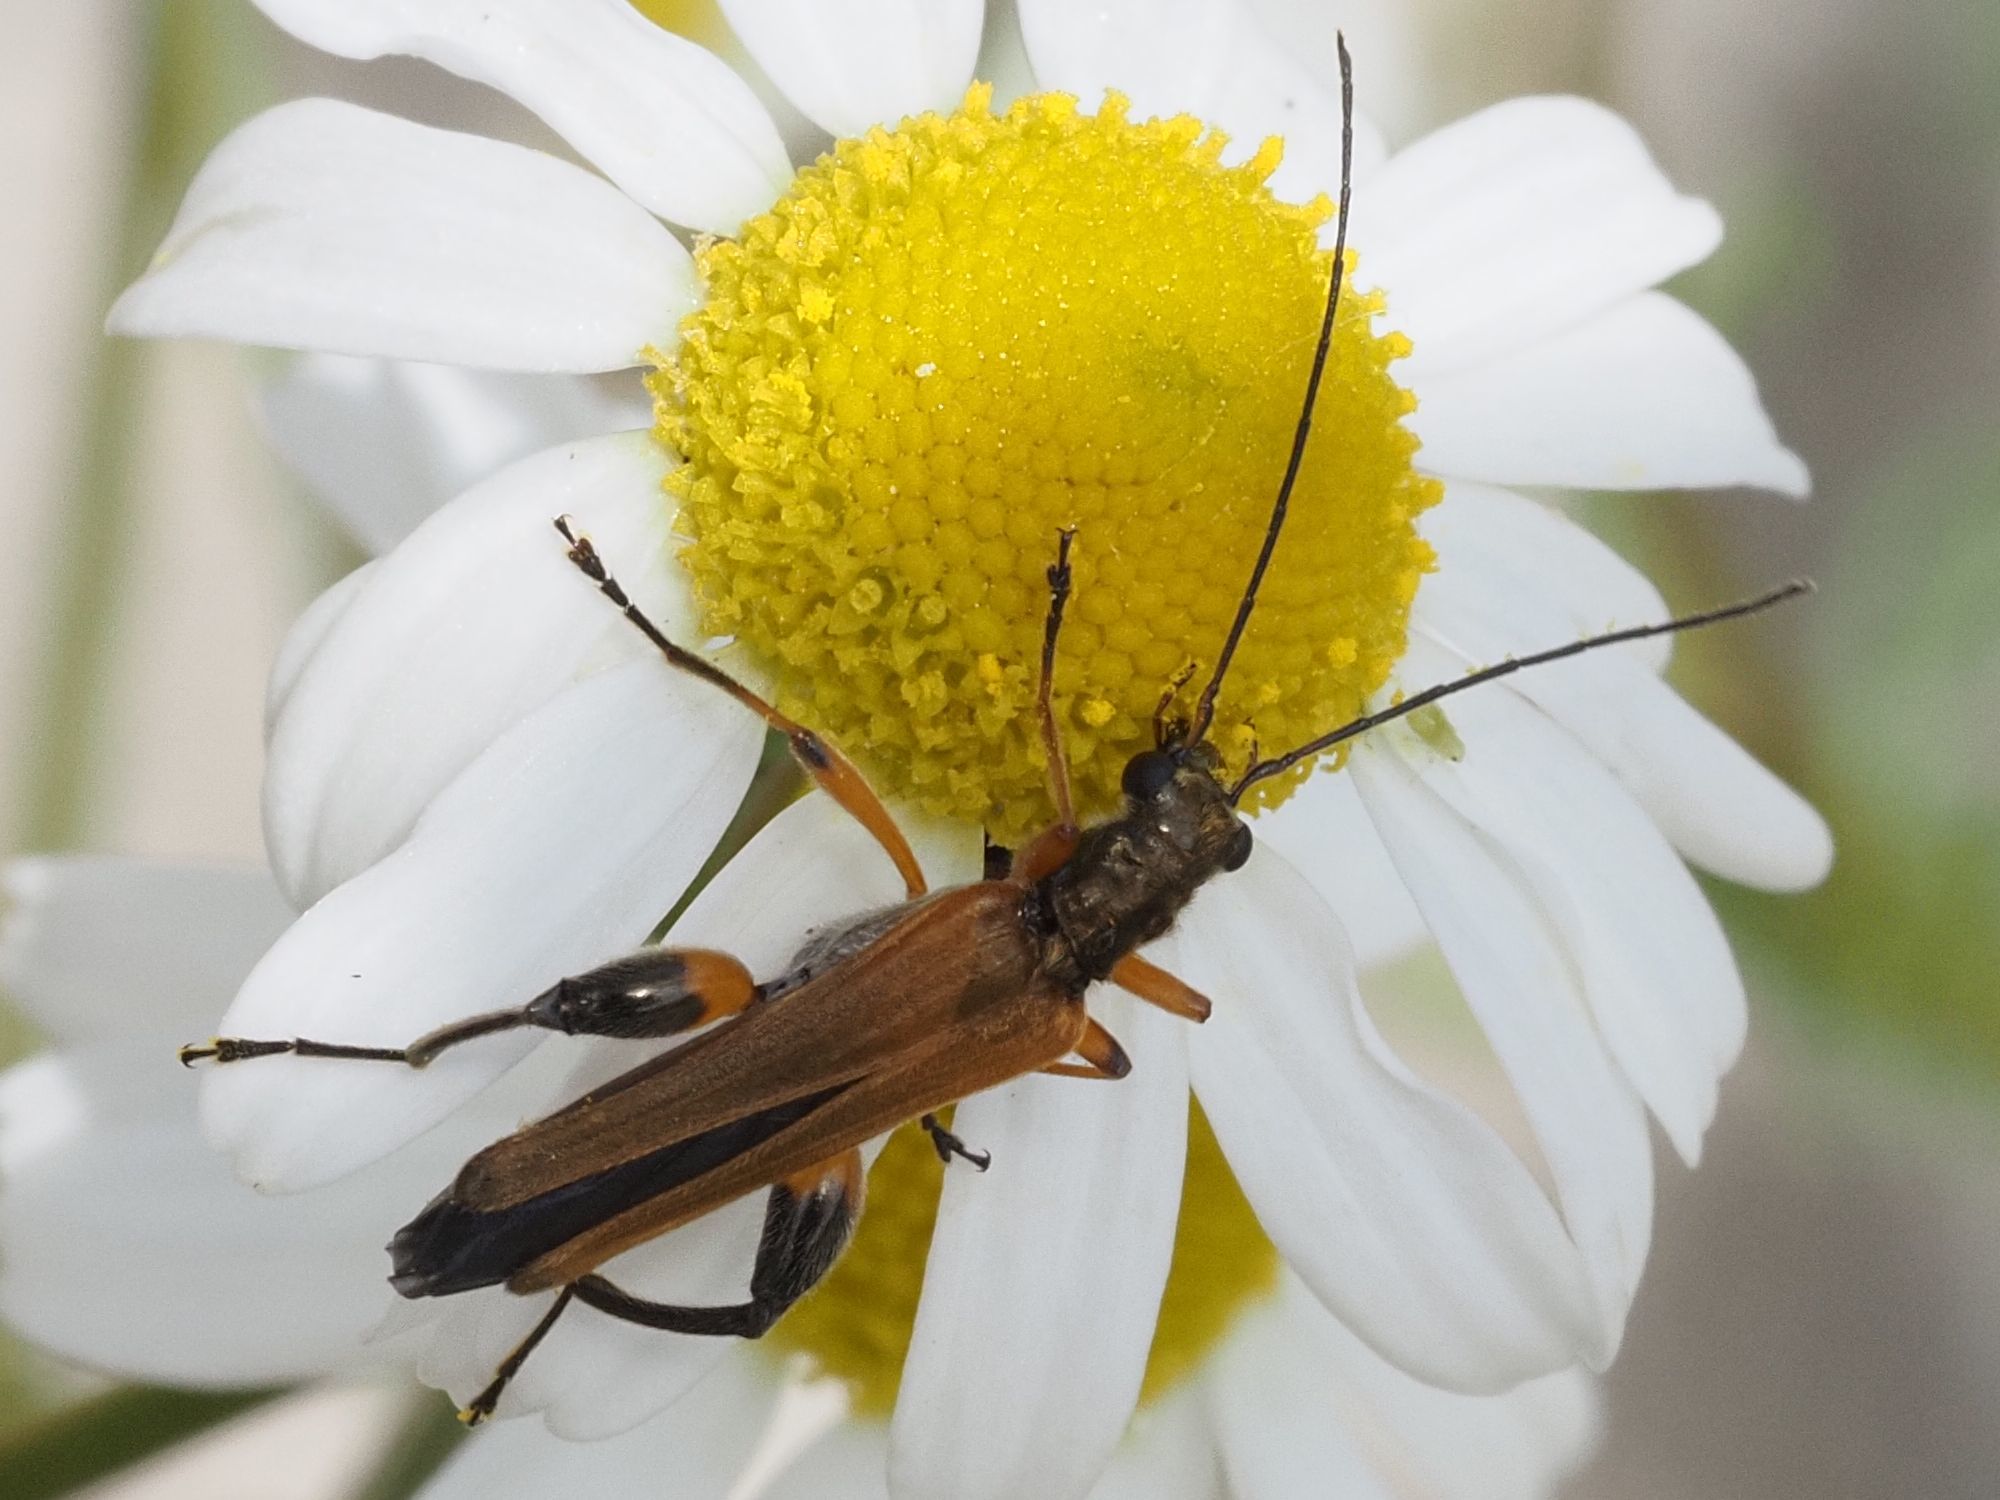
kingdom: Animalia
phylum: Arthropoda
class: Insecta
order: Coleoptera
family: Oedemeridae
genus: Oedemera
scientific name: Oedemera podagrariae
